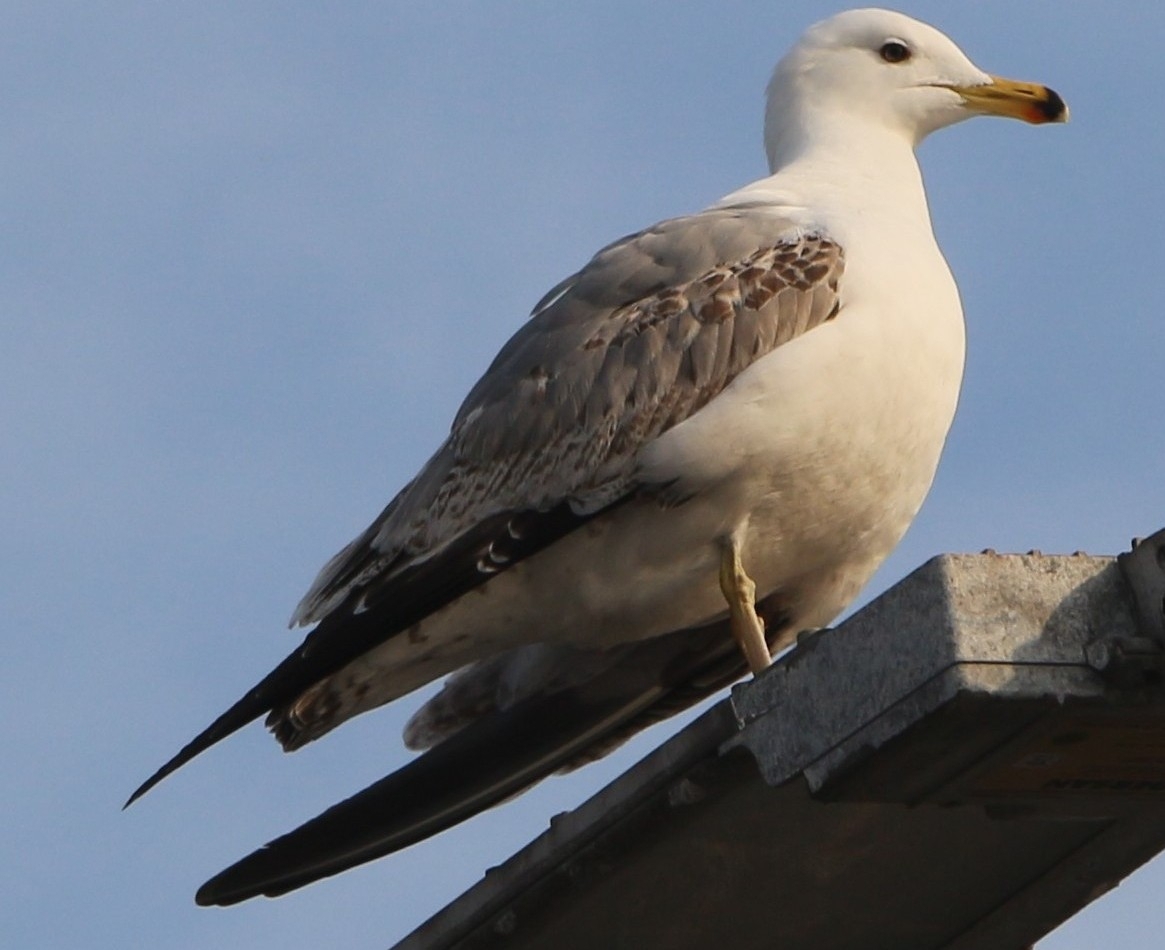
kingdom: Animalia
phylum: Chordata
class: Aves
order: Charadriiformes
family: Laridae
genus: Larus
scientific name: Larus michahellis
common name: Yellow-legged gull
